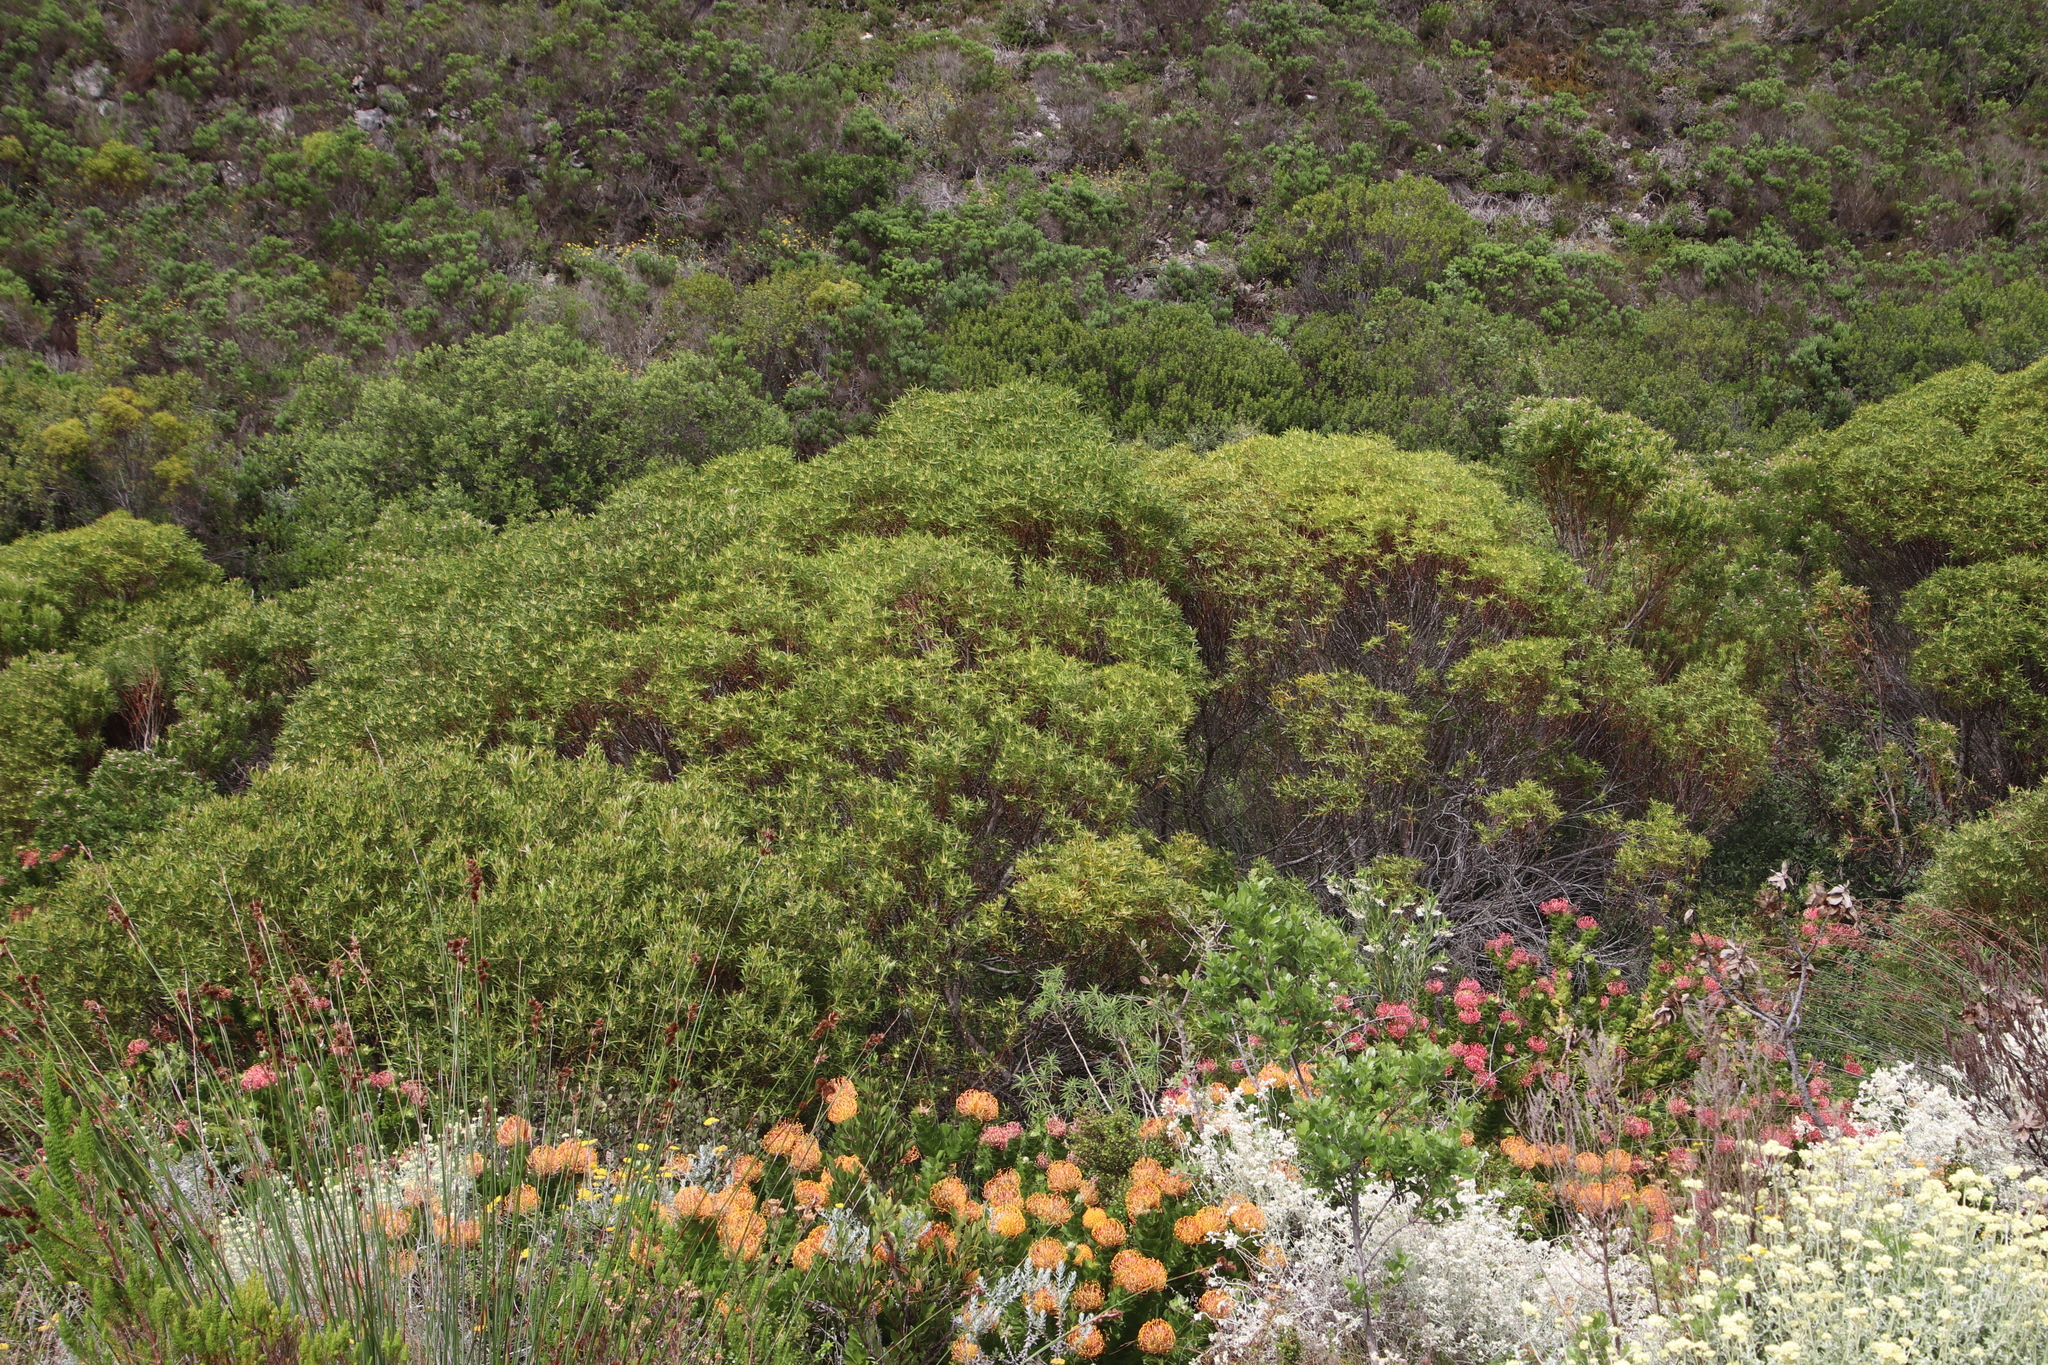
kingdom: Plantae
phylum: Tracheophyta
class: Magnoliopsida
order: Proteales
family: Proteaceae
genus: Leucadendron
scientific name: Leucadendron coniferum
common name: Dune conebush
